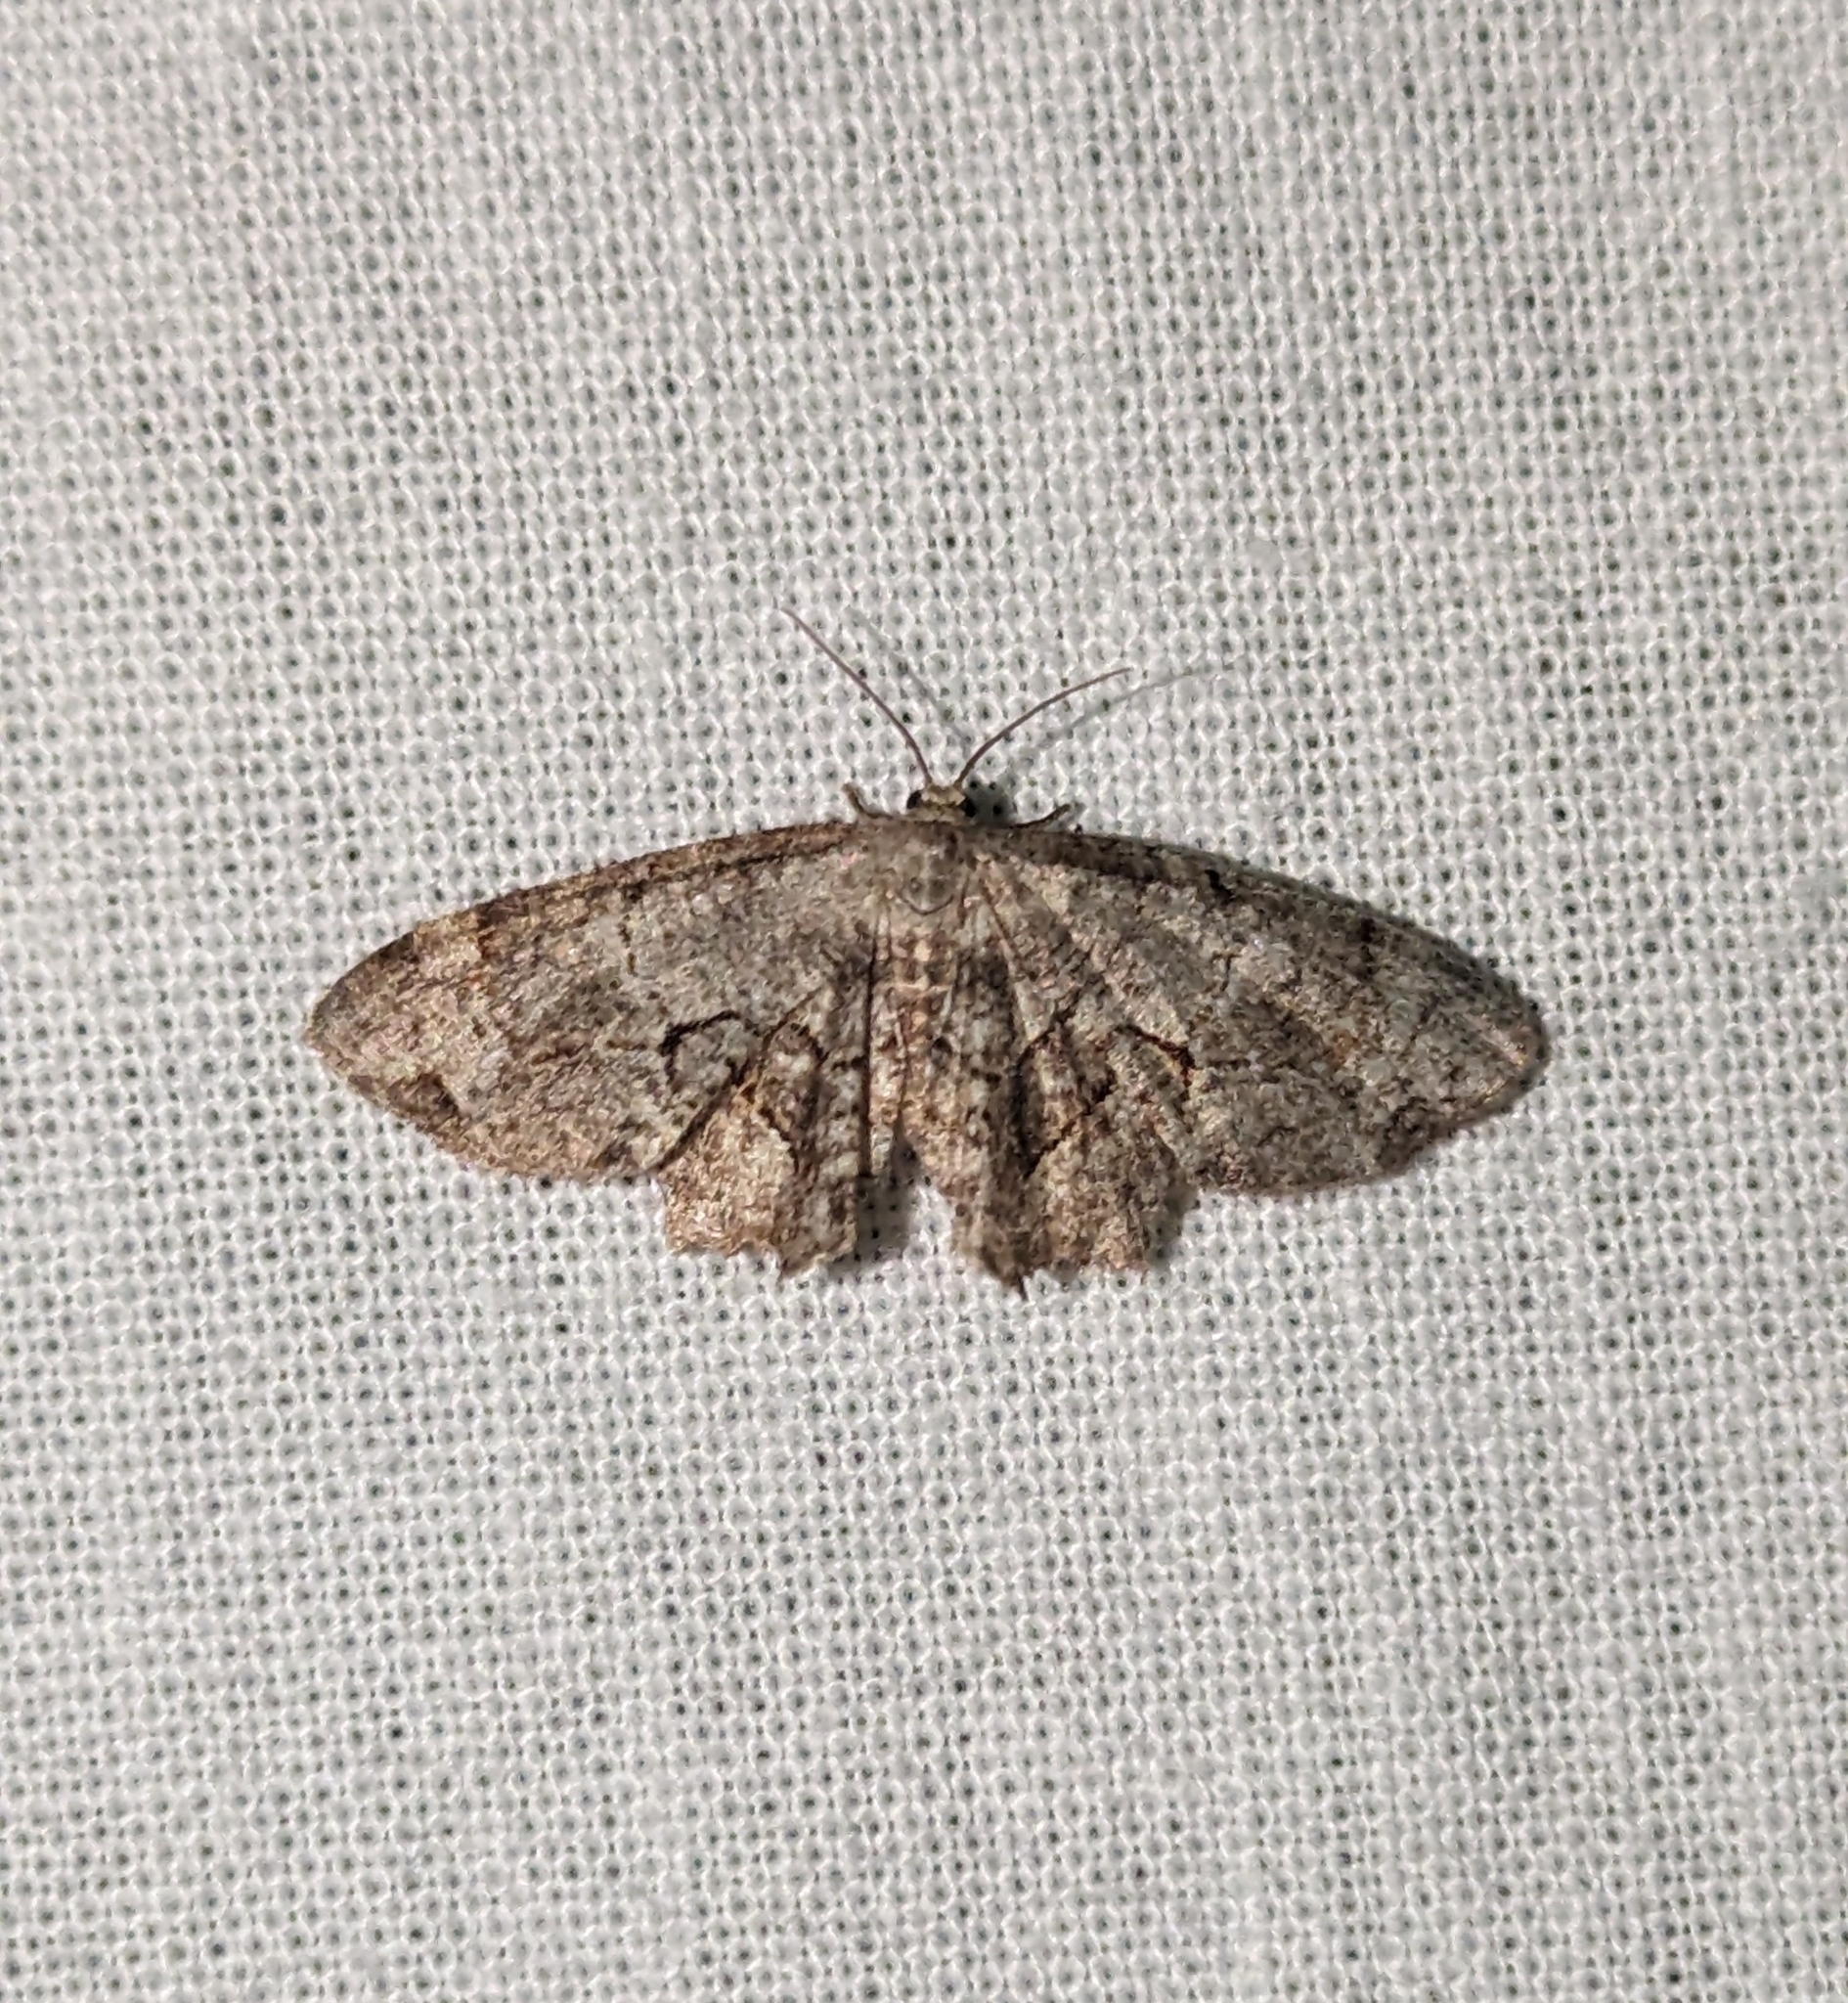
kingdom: Animalia
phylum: Arthropoda
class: Insecta
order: Lepidoptera
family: Uraniidae
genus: Epiplema
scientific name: Epiplema Callizzia amorata
